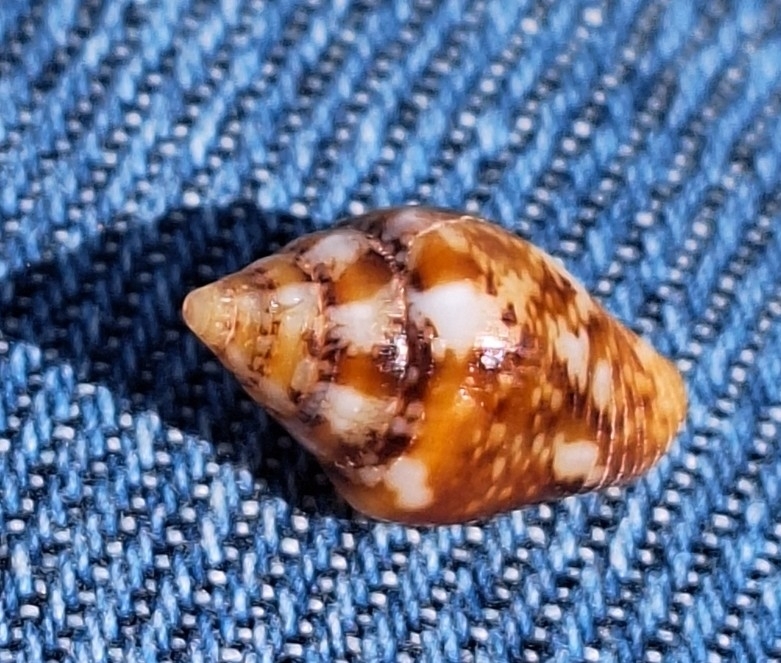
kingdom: Animalia
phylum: Mollusca
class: Gastropoda
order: Neogastropoda
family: Columbellidae
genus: Columbella
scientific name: Columbella rustica
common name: Rustic dove shell
